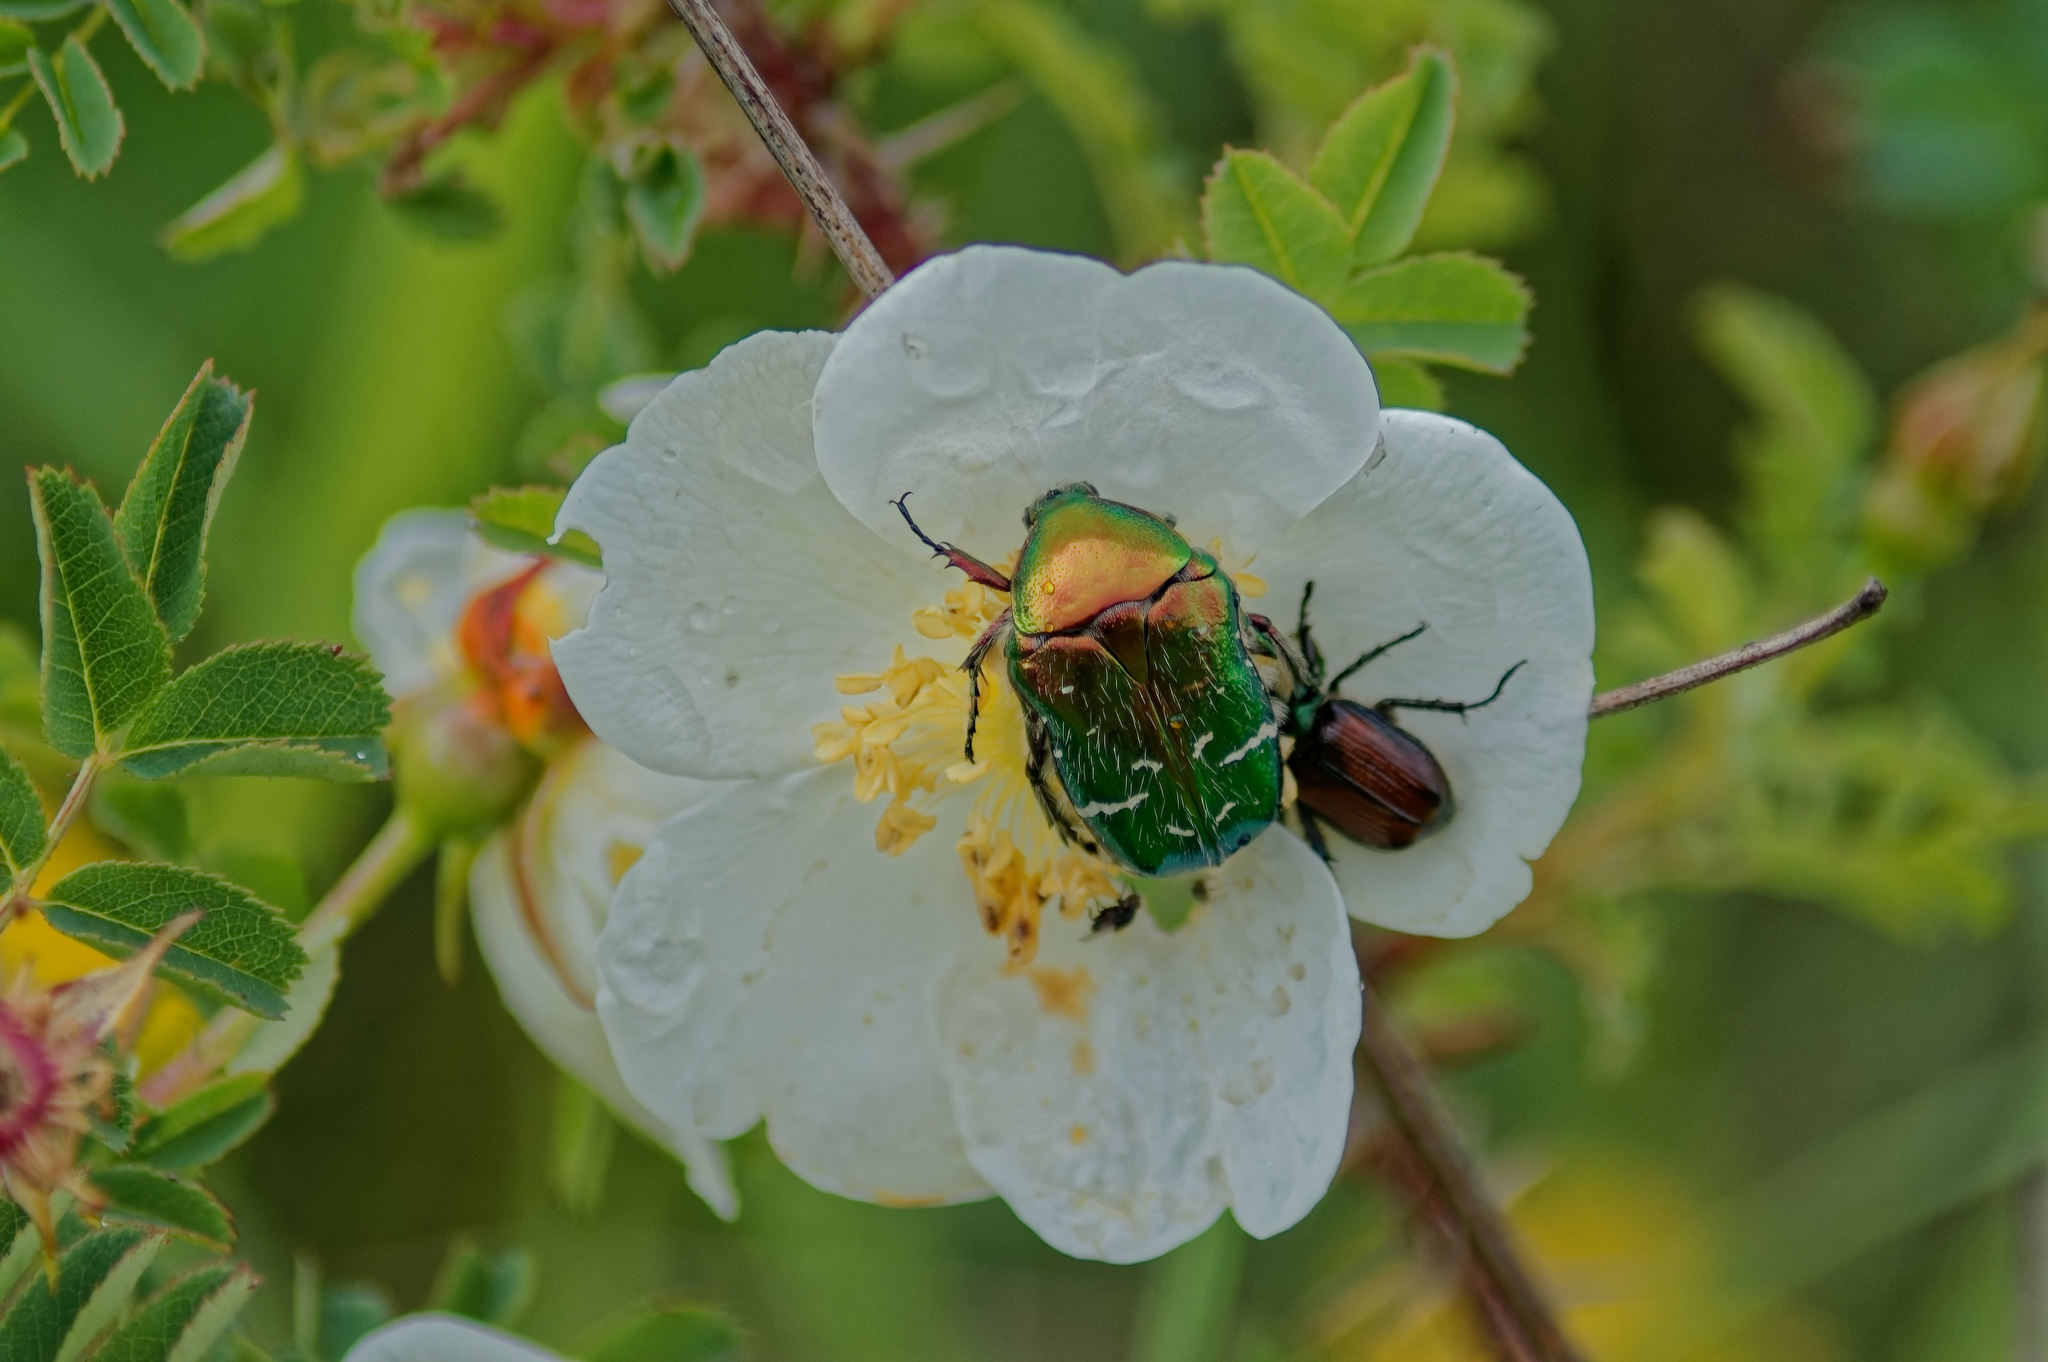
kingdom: Animalia
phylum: Arthropoda
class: Insecta
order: Coleoptera
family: Scarabaeidae
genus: Cetonia
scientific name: Cetonia aurata
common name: Rose chafer
